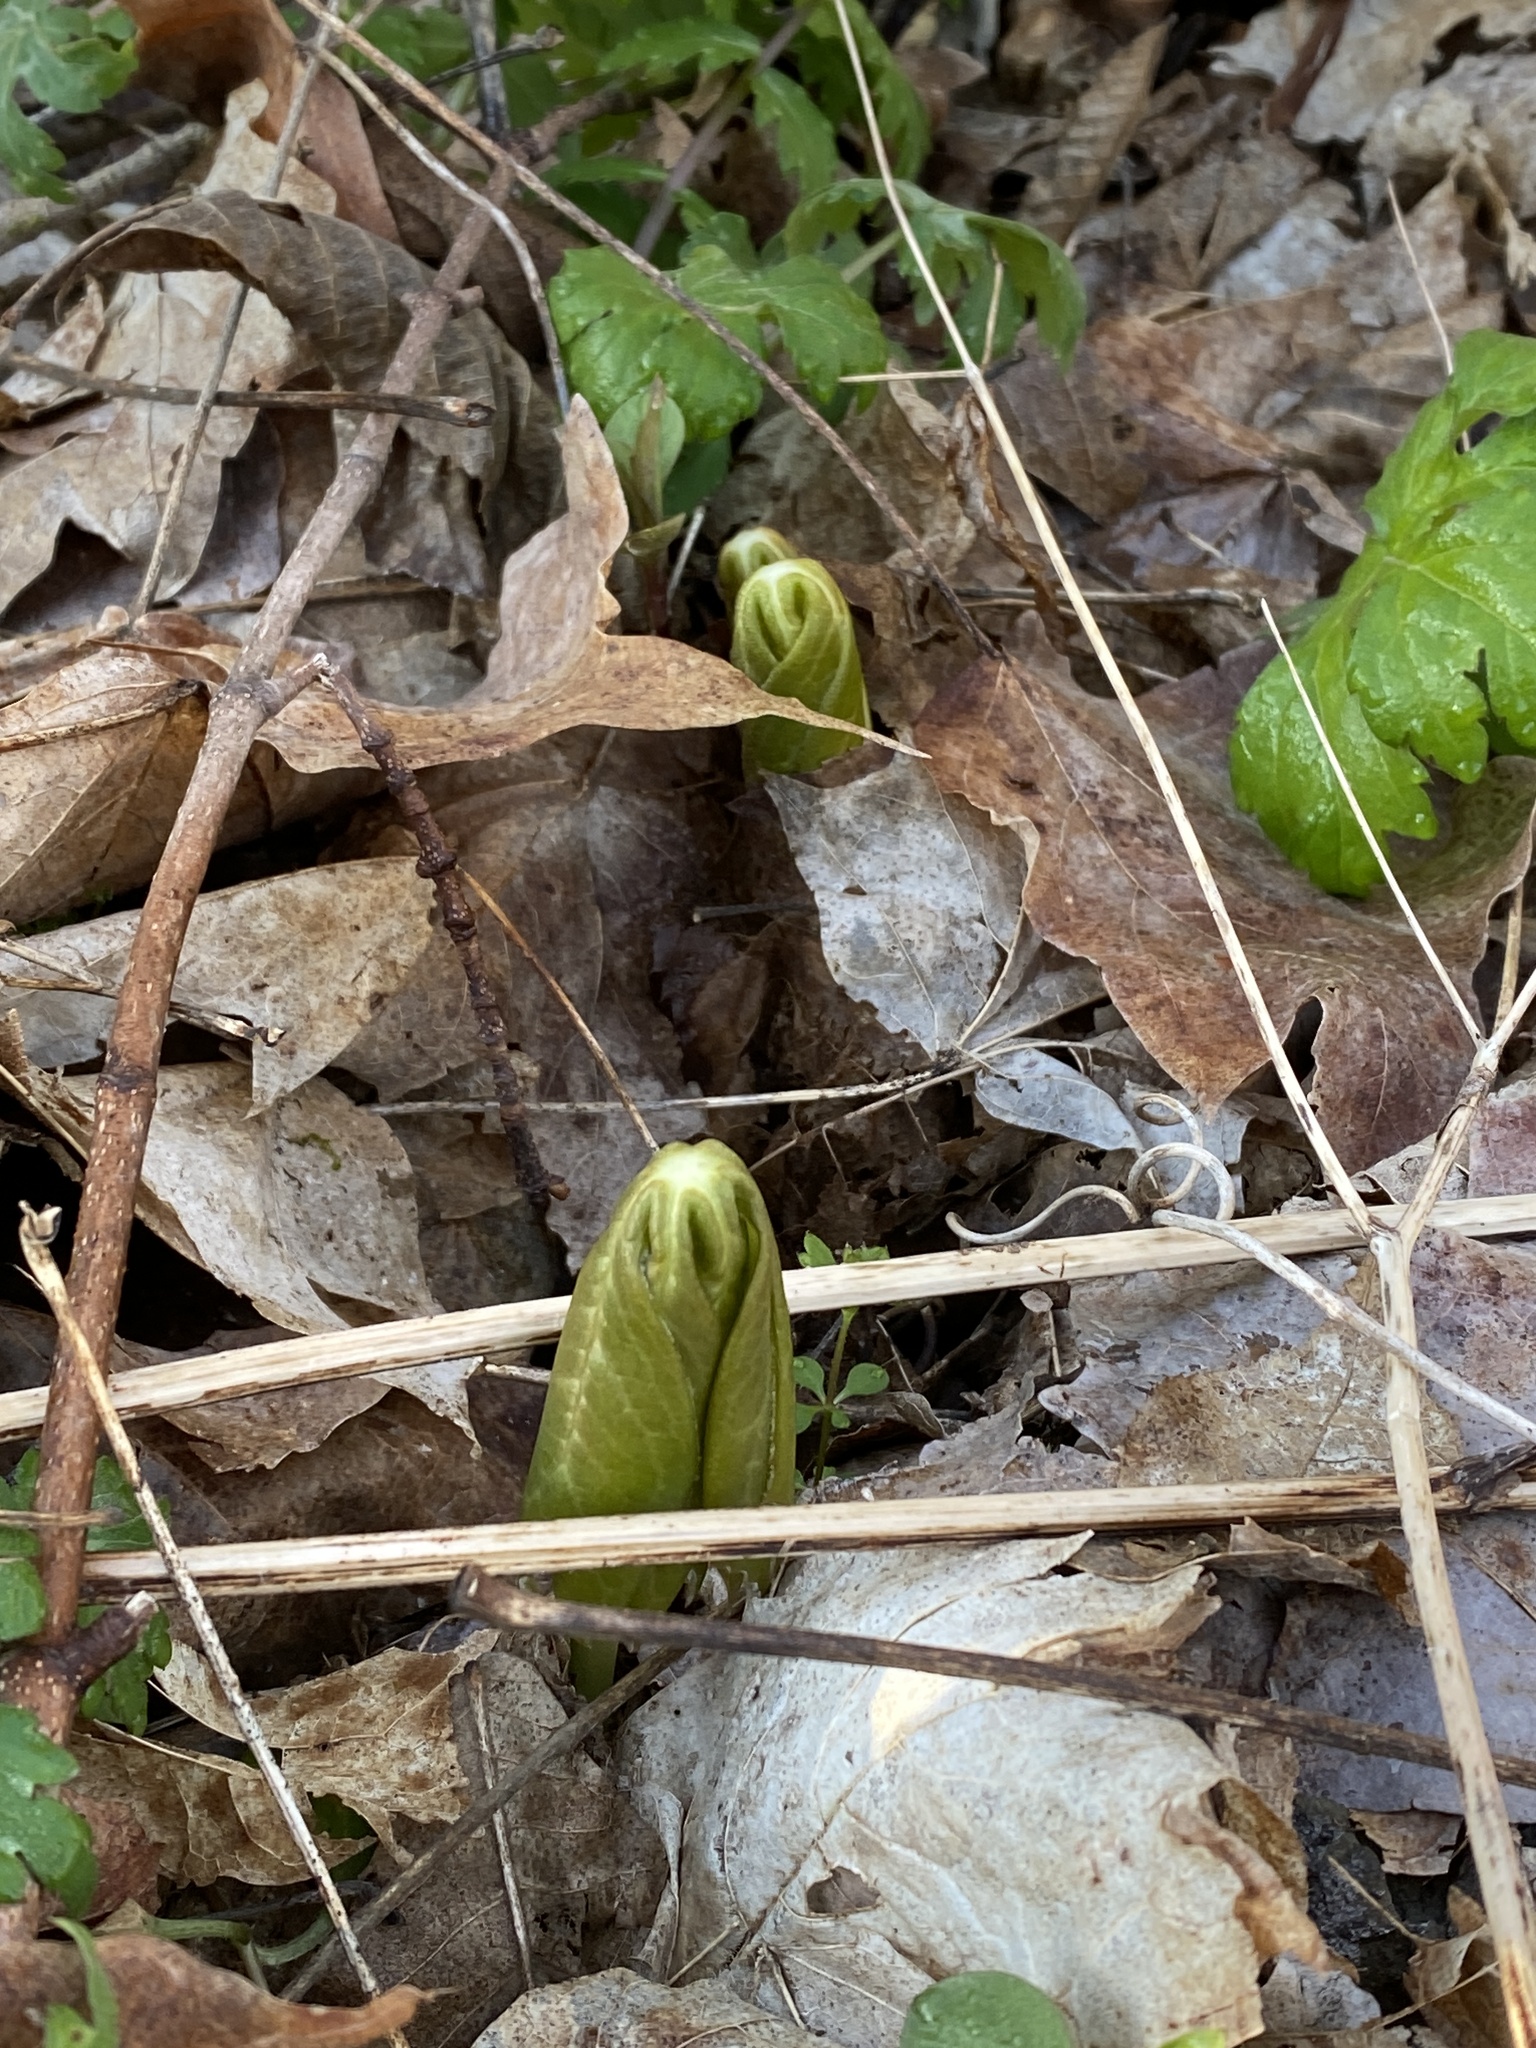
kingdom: Plantae
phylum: Tracheophyta
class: Magnoliopsida
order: Ranunculales
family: Berberidaceae
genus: Podophyllum
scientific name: Podophyllum peltatum
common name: Wild mandrake
